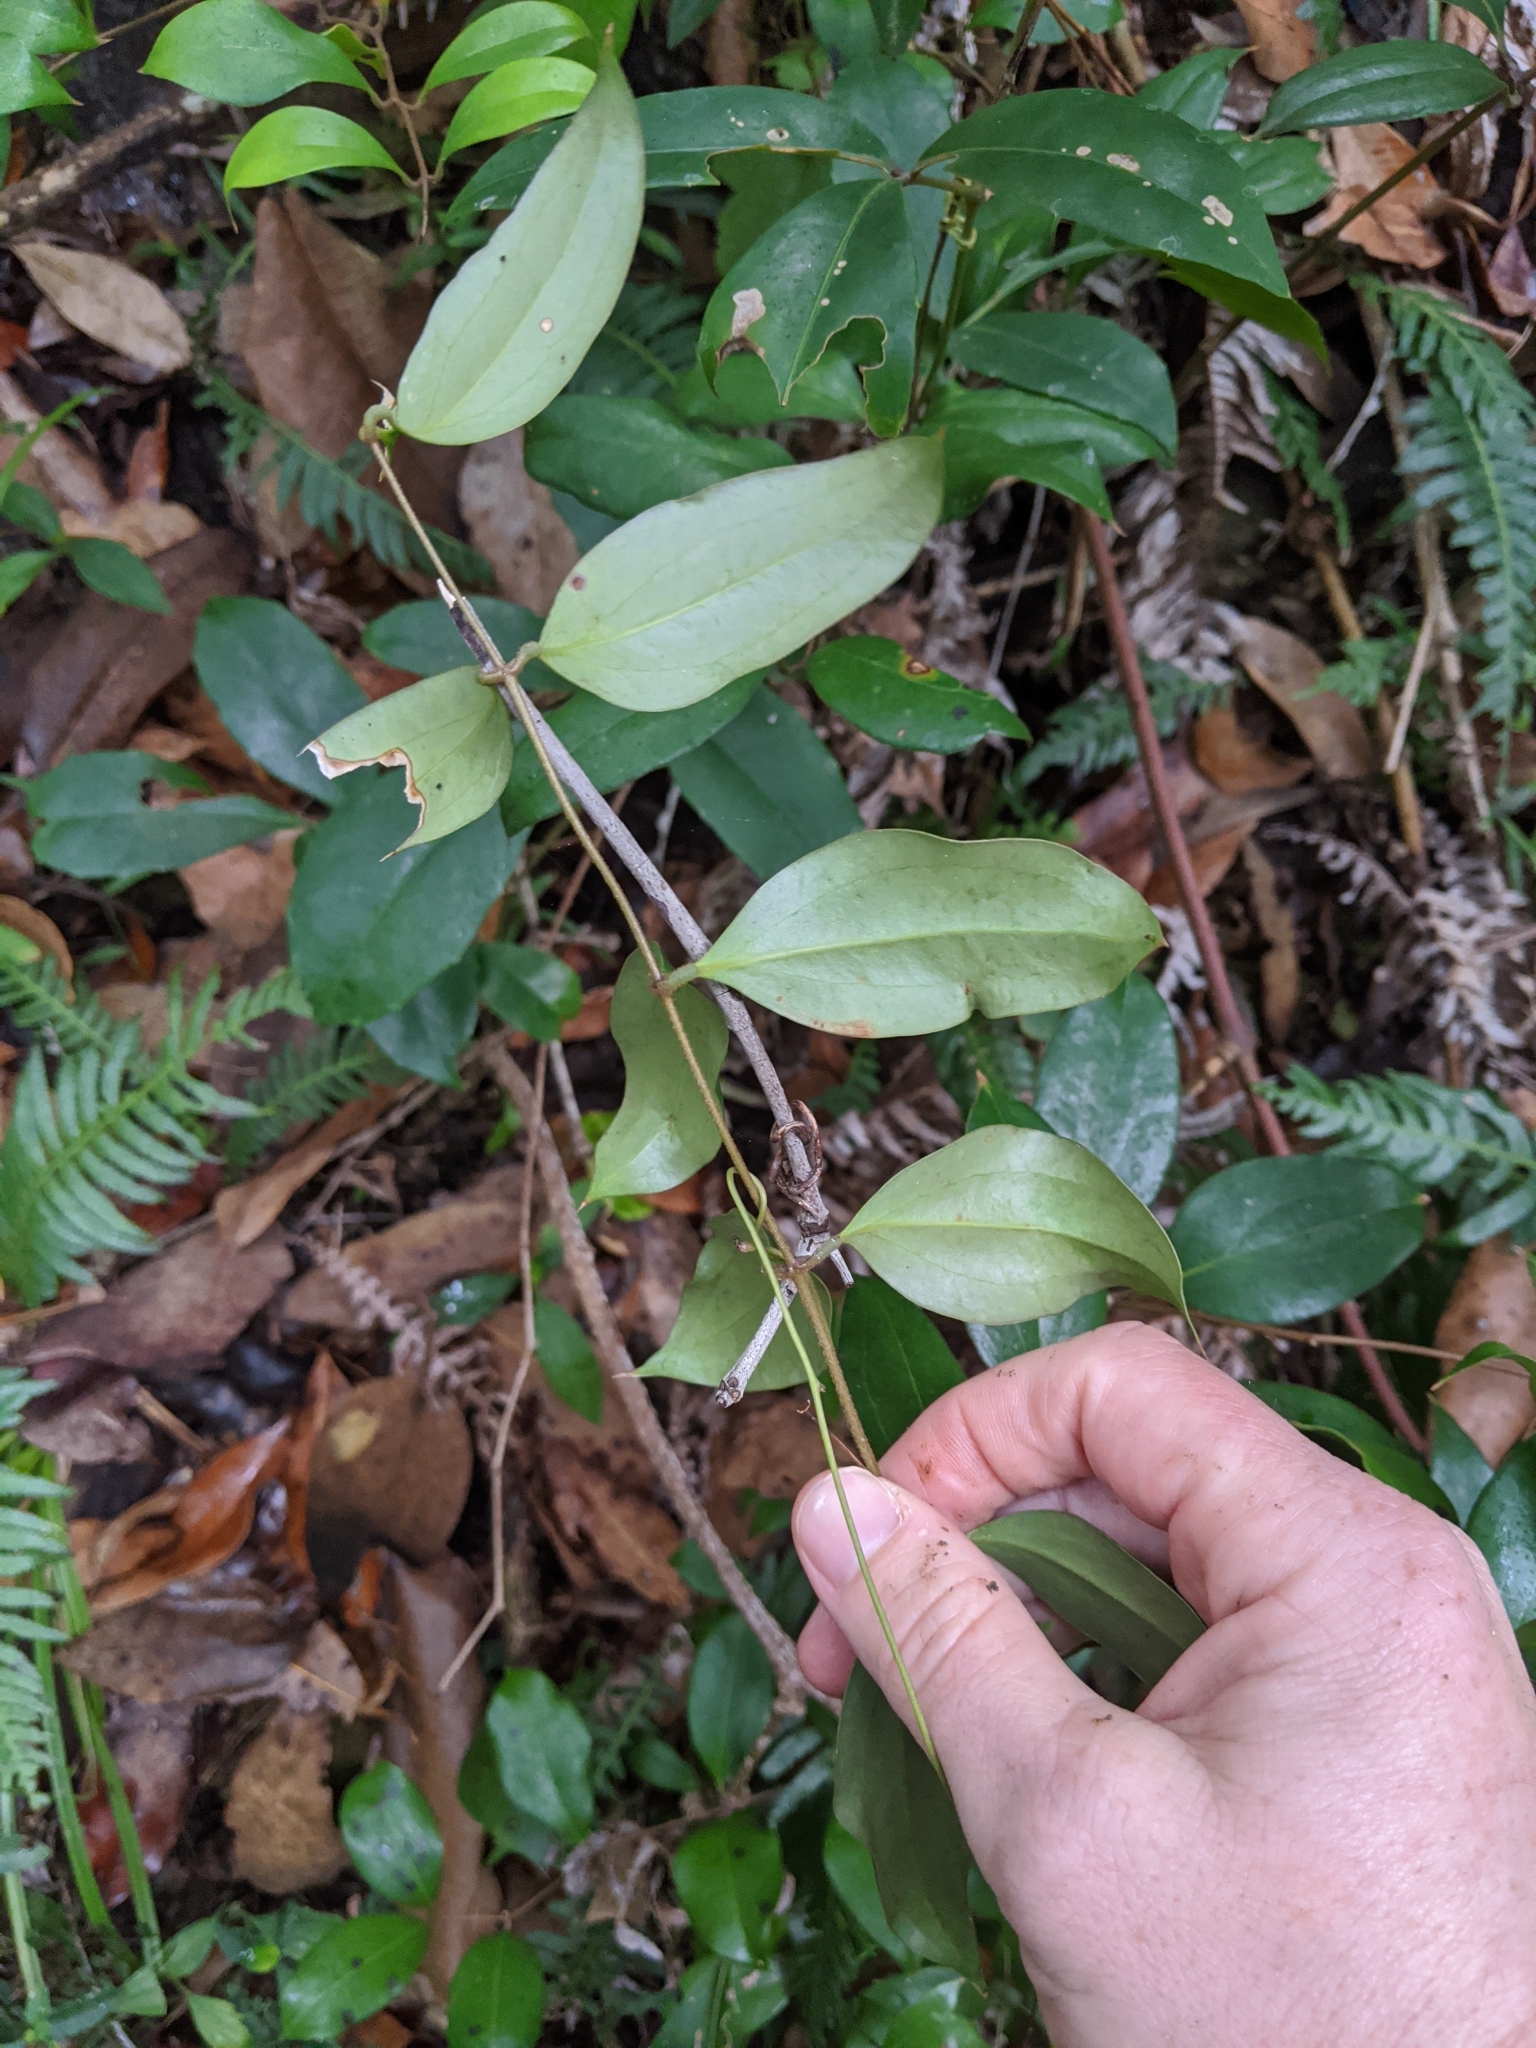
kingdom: Plantae
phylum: Tracheophyta
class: Liliopsida
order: Liliales
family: Ripogonaceae
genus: Ripogonum
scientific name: Ripogonum brevifolium
